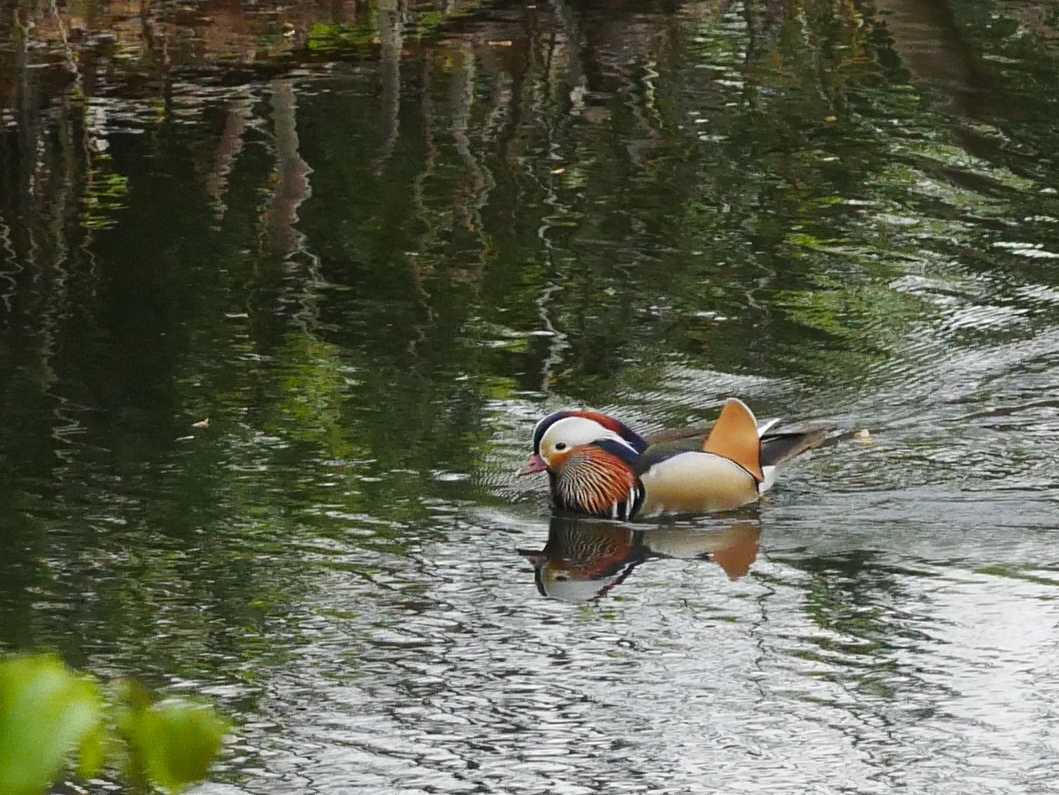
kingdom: Animalia
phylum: Chordata
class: Aves
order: Anseriformes
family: Anatidae
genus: Aix
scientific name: Aix galericulata
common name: Mandarin duck
